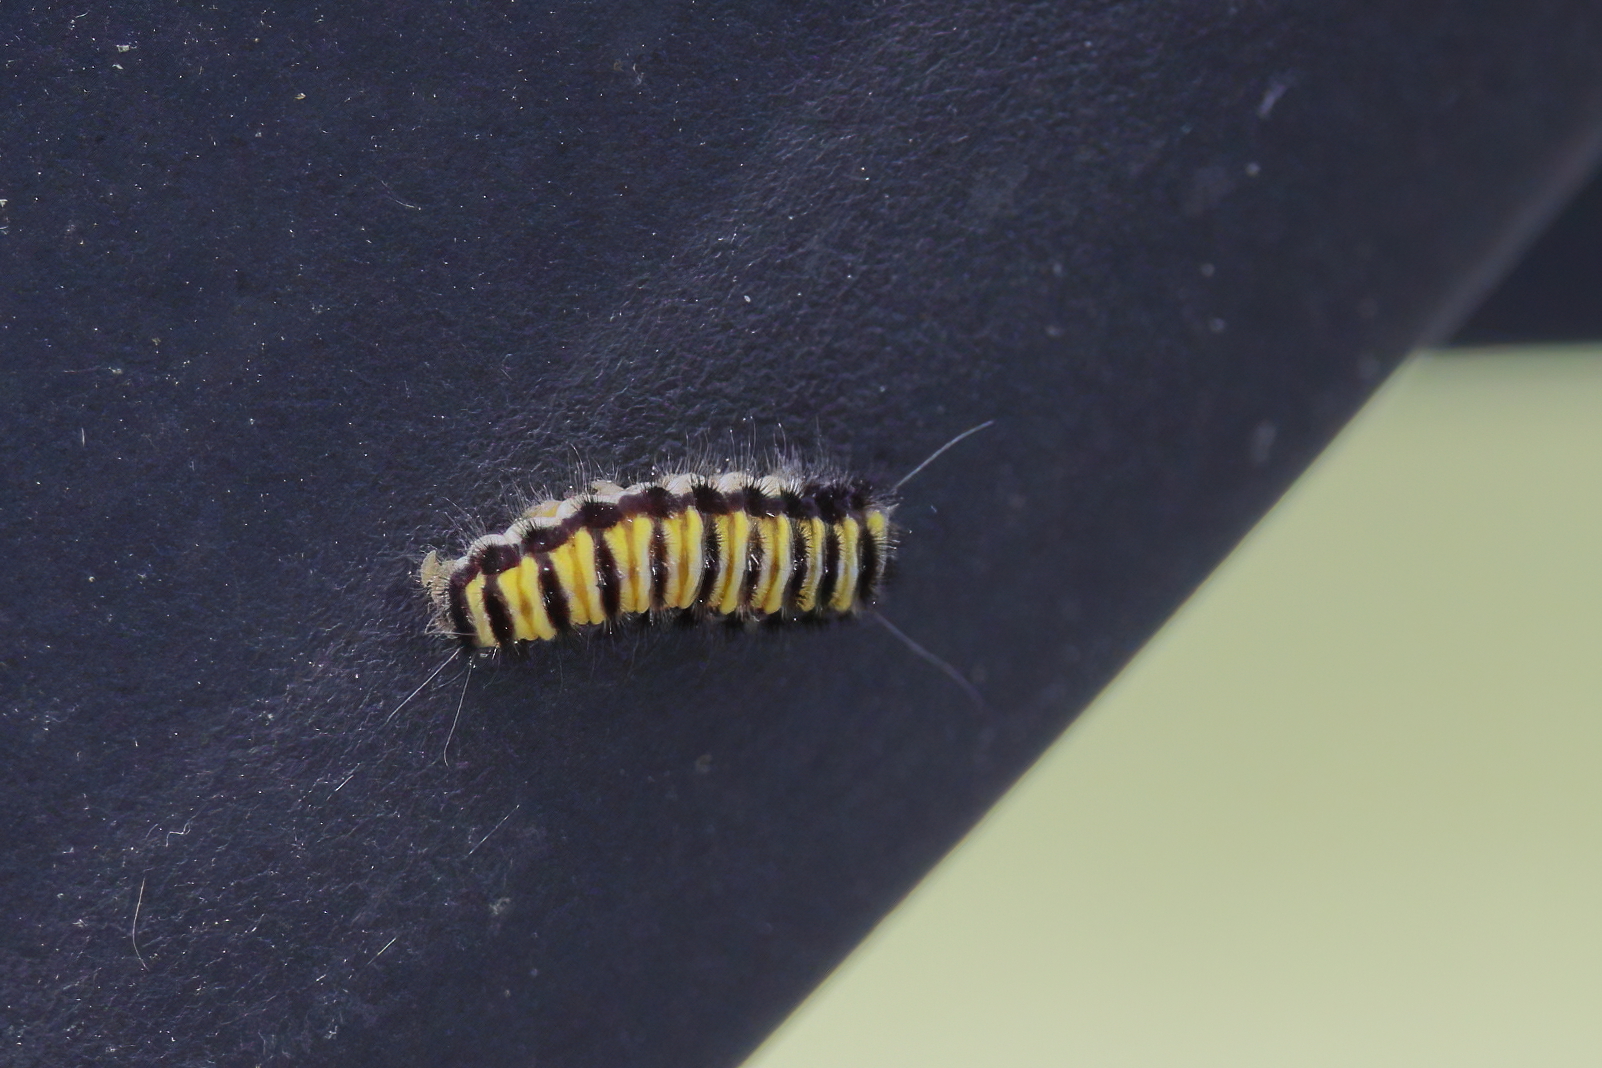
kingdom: Animalia
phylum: Arthropoda
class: Insecta
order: Lepidoptera
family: Zygaenidae
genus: Harrisina
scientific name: Harrisina americana
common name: Grapeleaf skeletonizer moth
